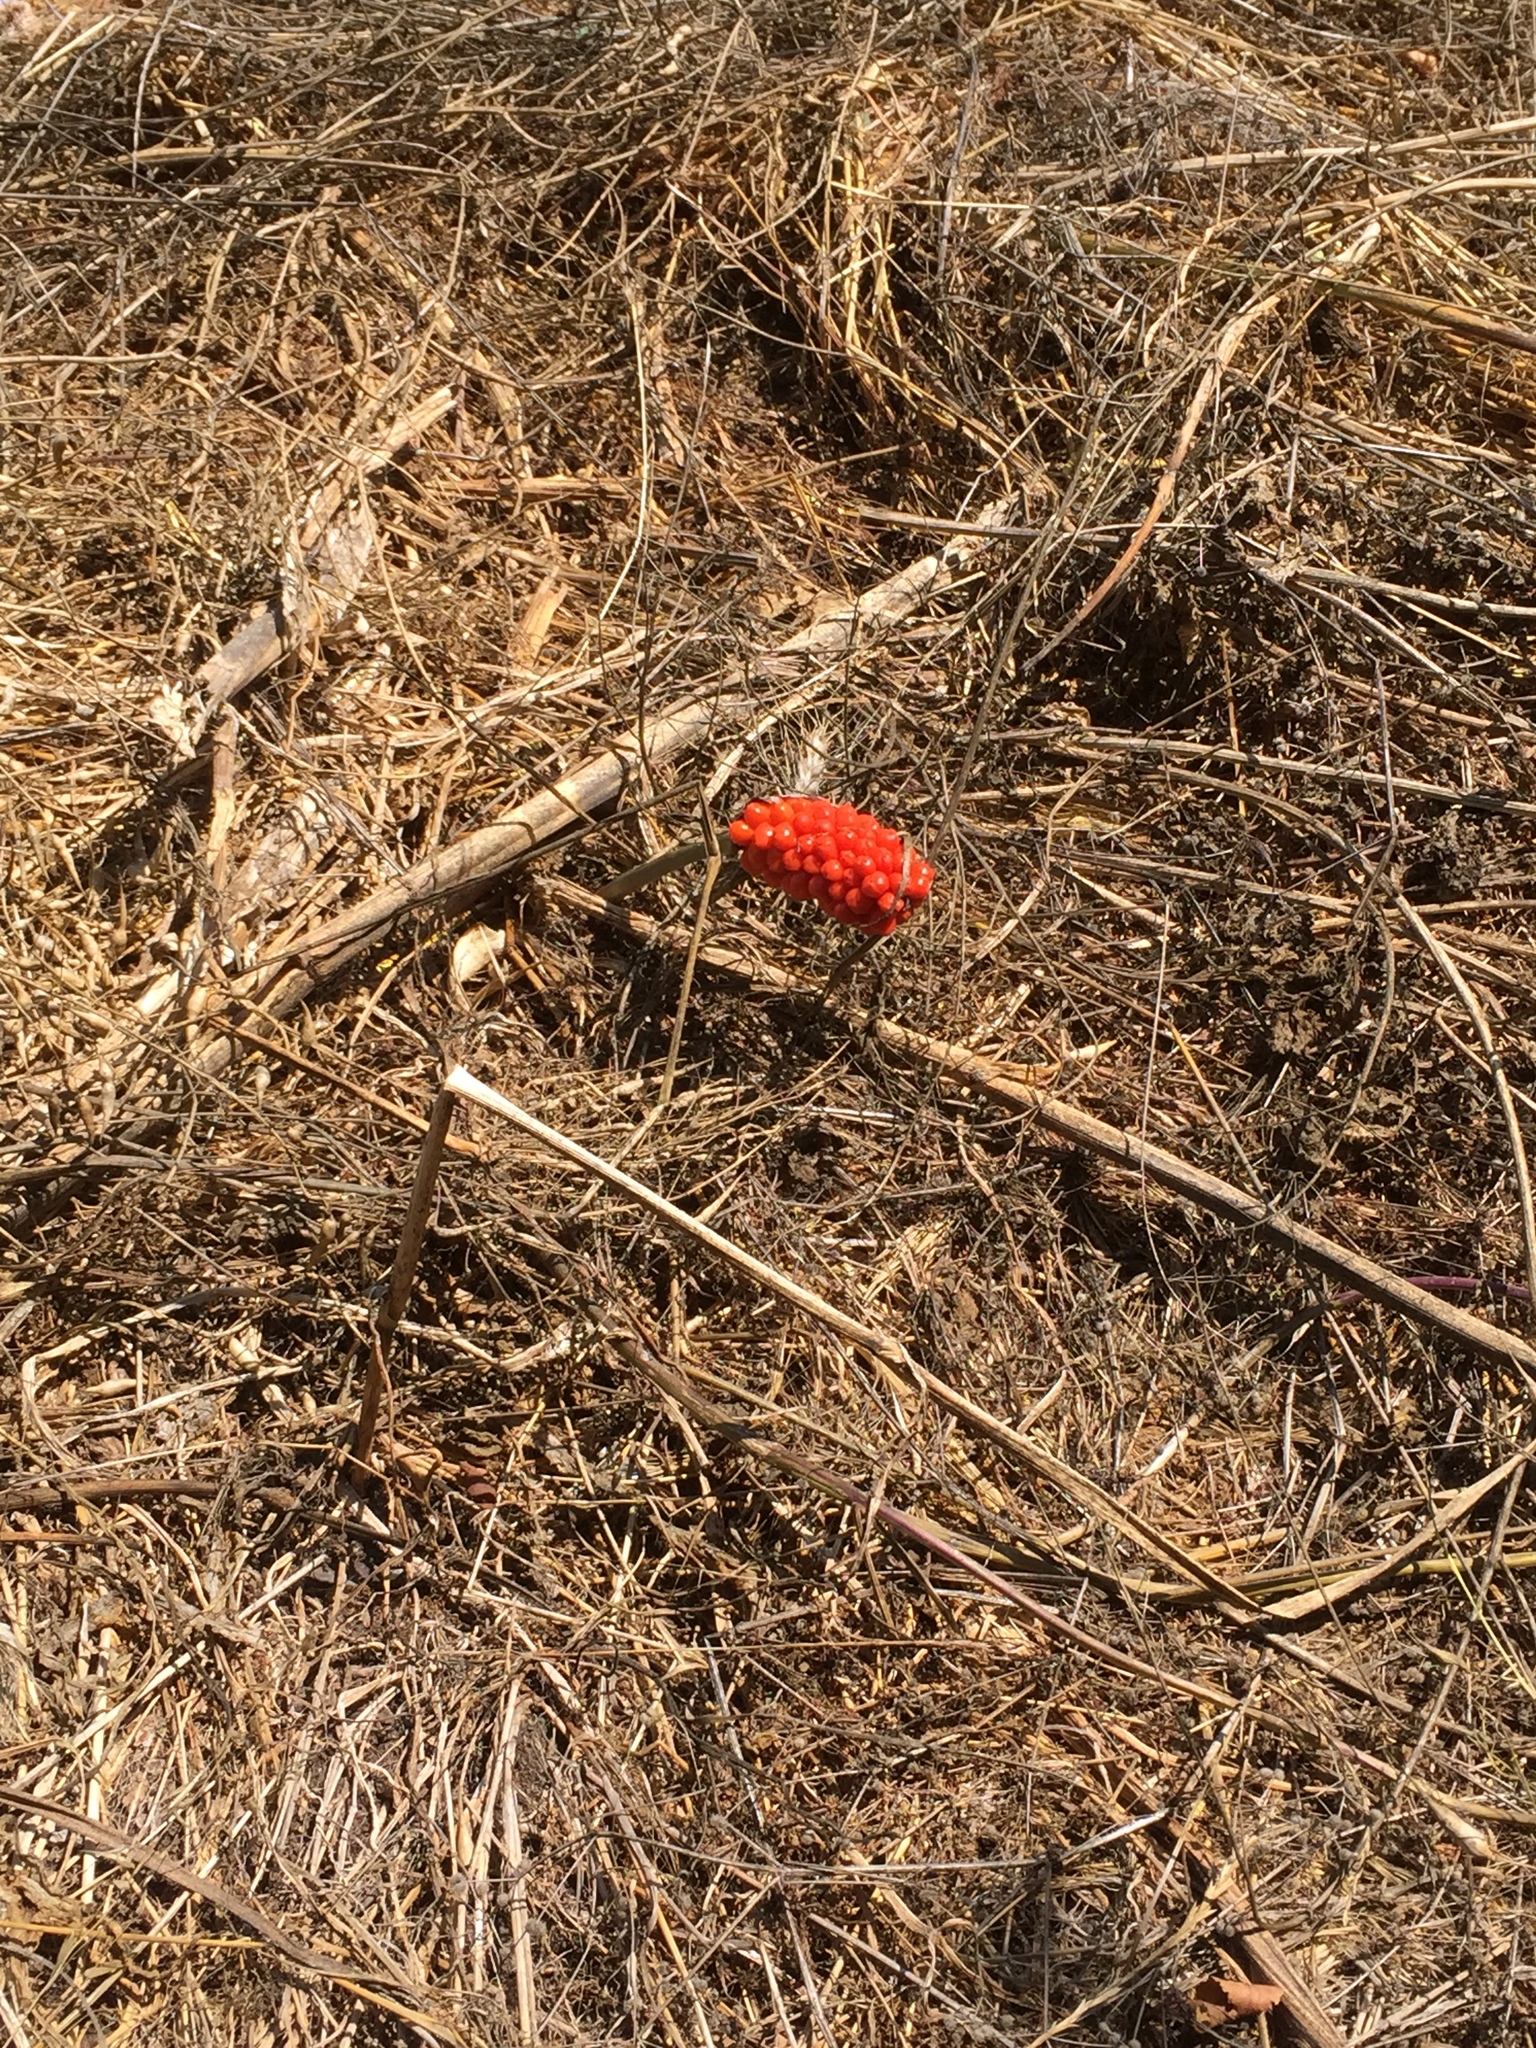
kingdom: Plantae
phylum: Tracheophyta
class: Liliopsida
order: Alismatales
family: Araceae
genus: Arum
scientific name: Arum italicum
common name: Italian lords-and-ladies
